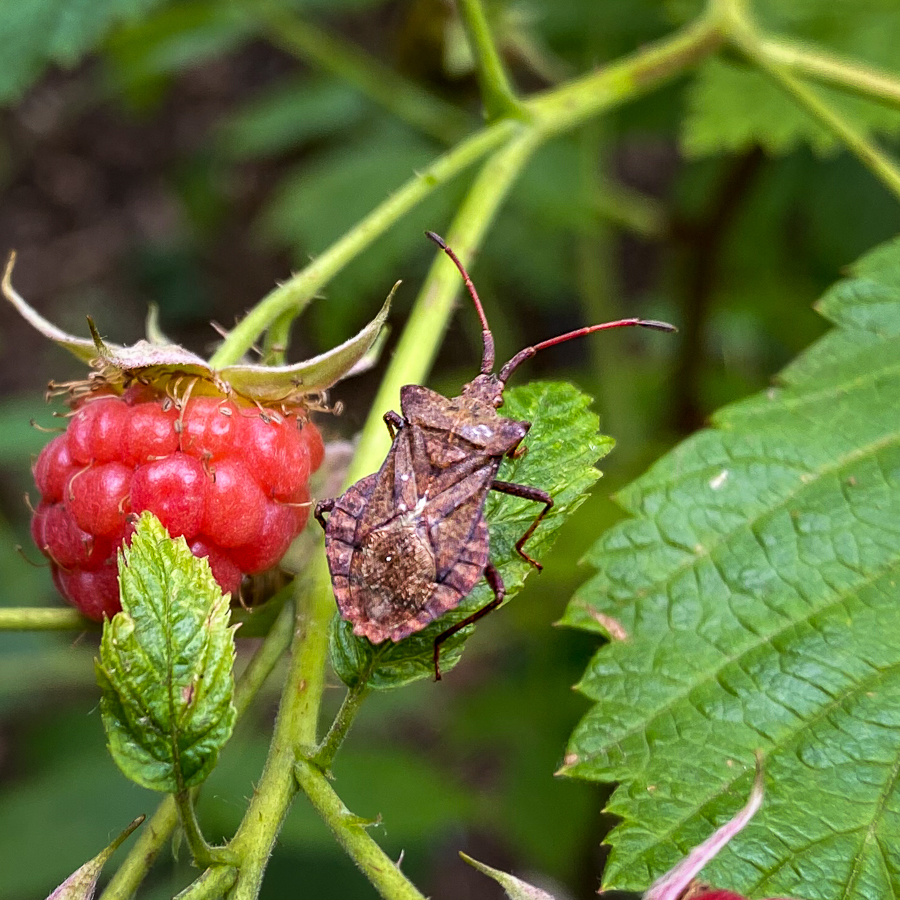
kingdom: Animalia
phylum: Arthropoda
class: Insecta
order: Hemiptera
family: Coreidae
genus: Coreus
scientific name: Coreus marginatus
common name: Dock bug
